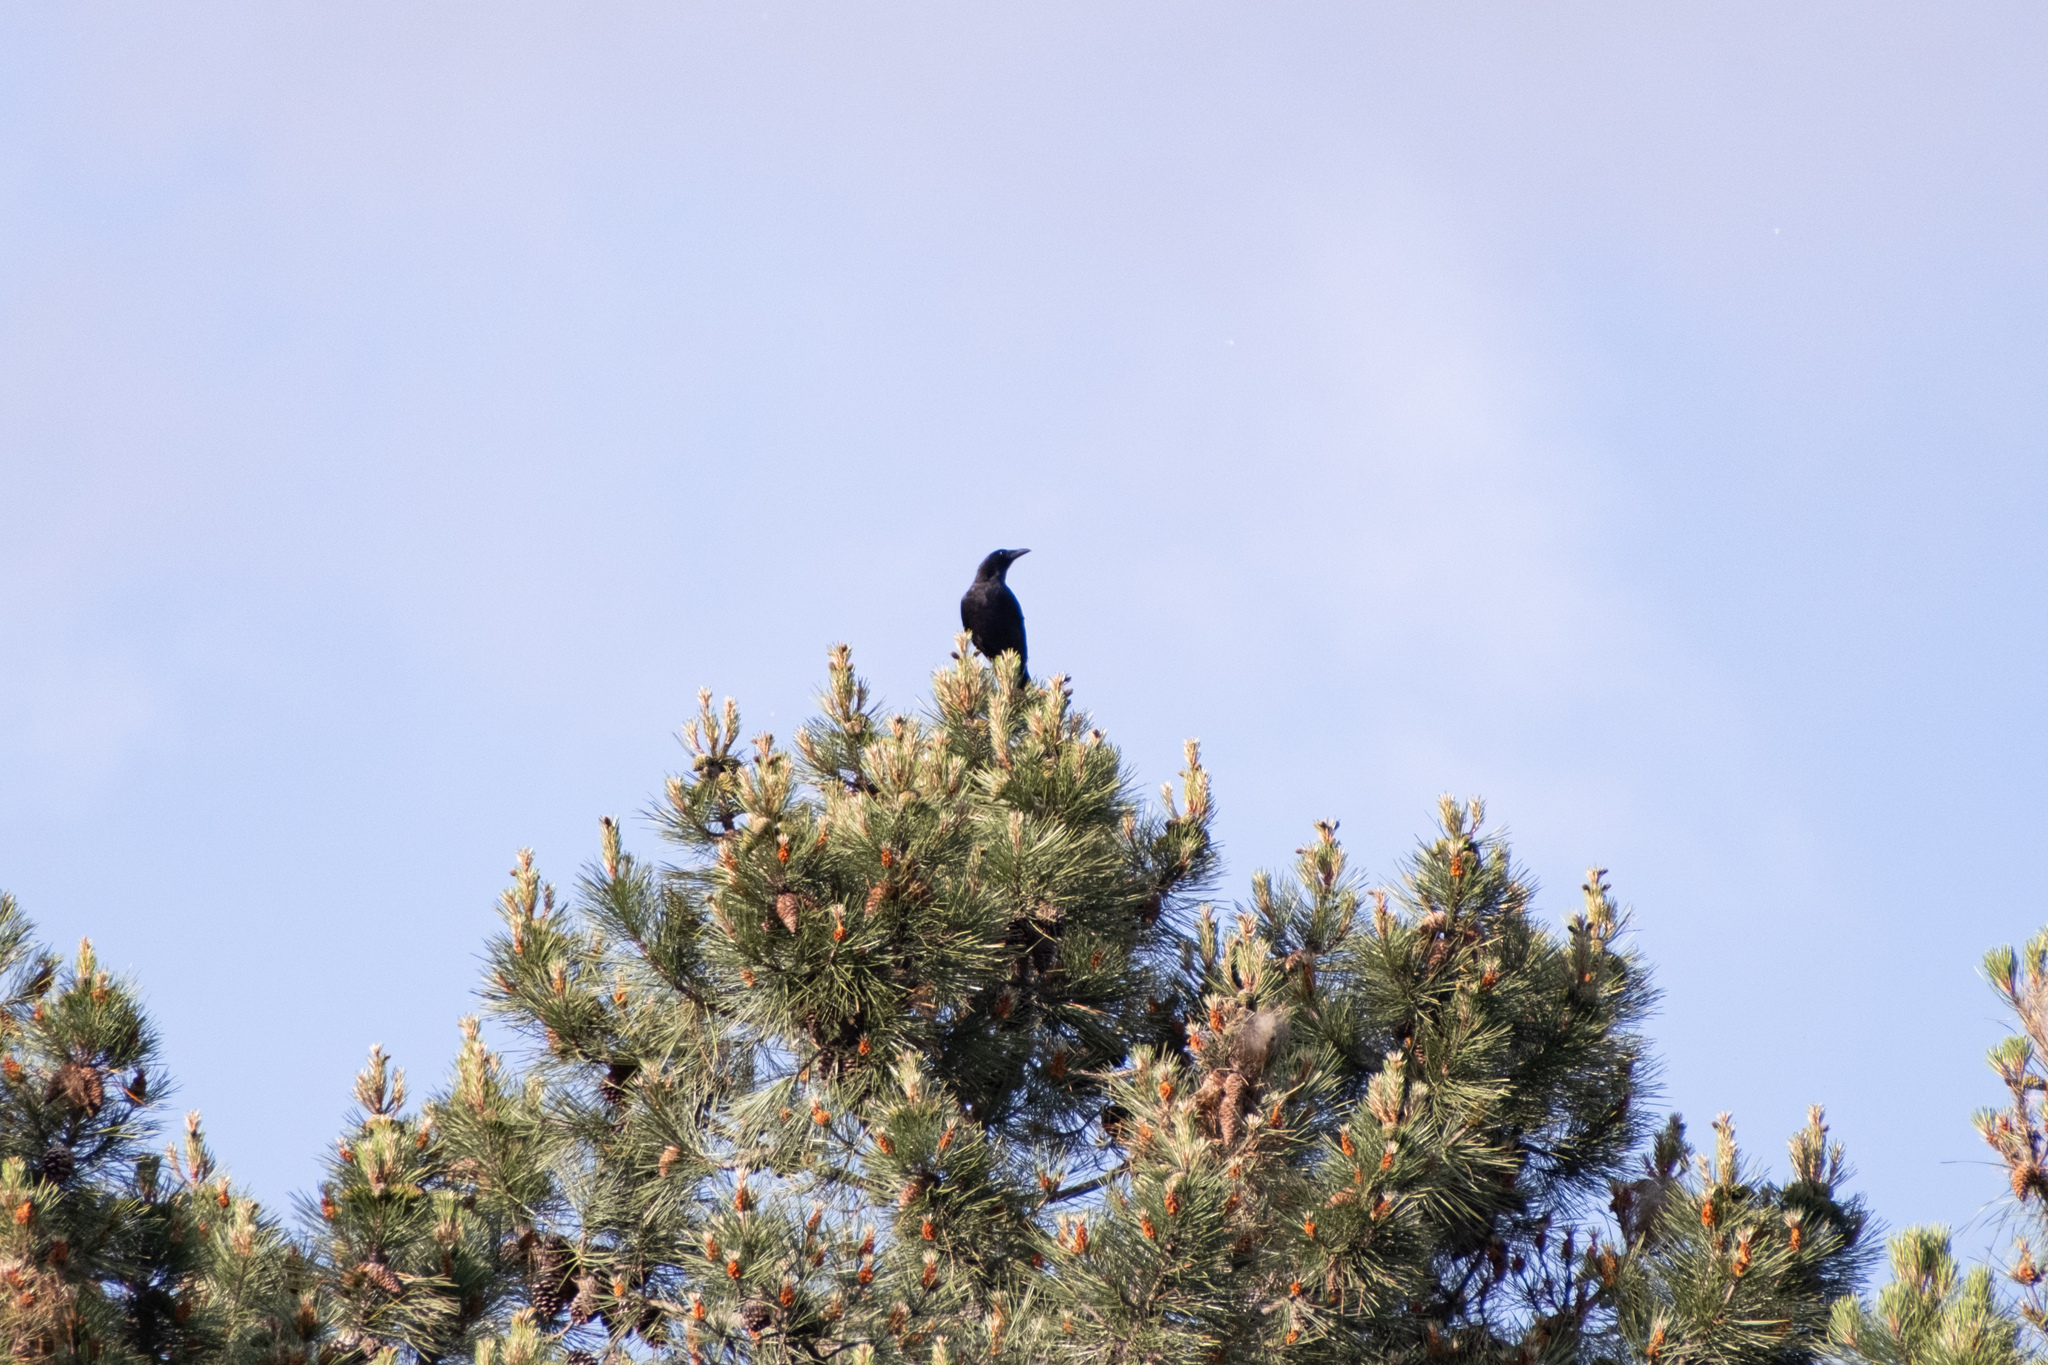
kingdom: Animalia
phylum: Chordata
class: Aves
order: Passeriformes
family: Corvidae
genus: Corvus
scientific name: Corvus corone
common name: Carrion crow
